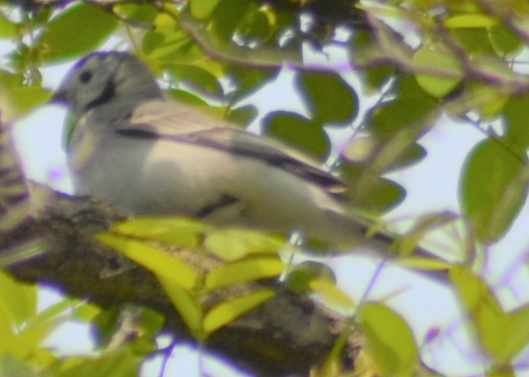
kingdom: Animalia
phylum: Chordata
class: Aves
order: Passeriformes
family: Motacillidae
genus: Motacilla
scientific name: Motacilla alba
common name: White wagtail
